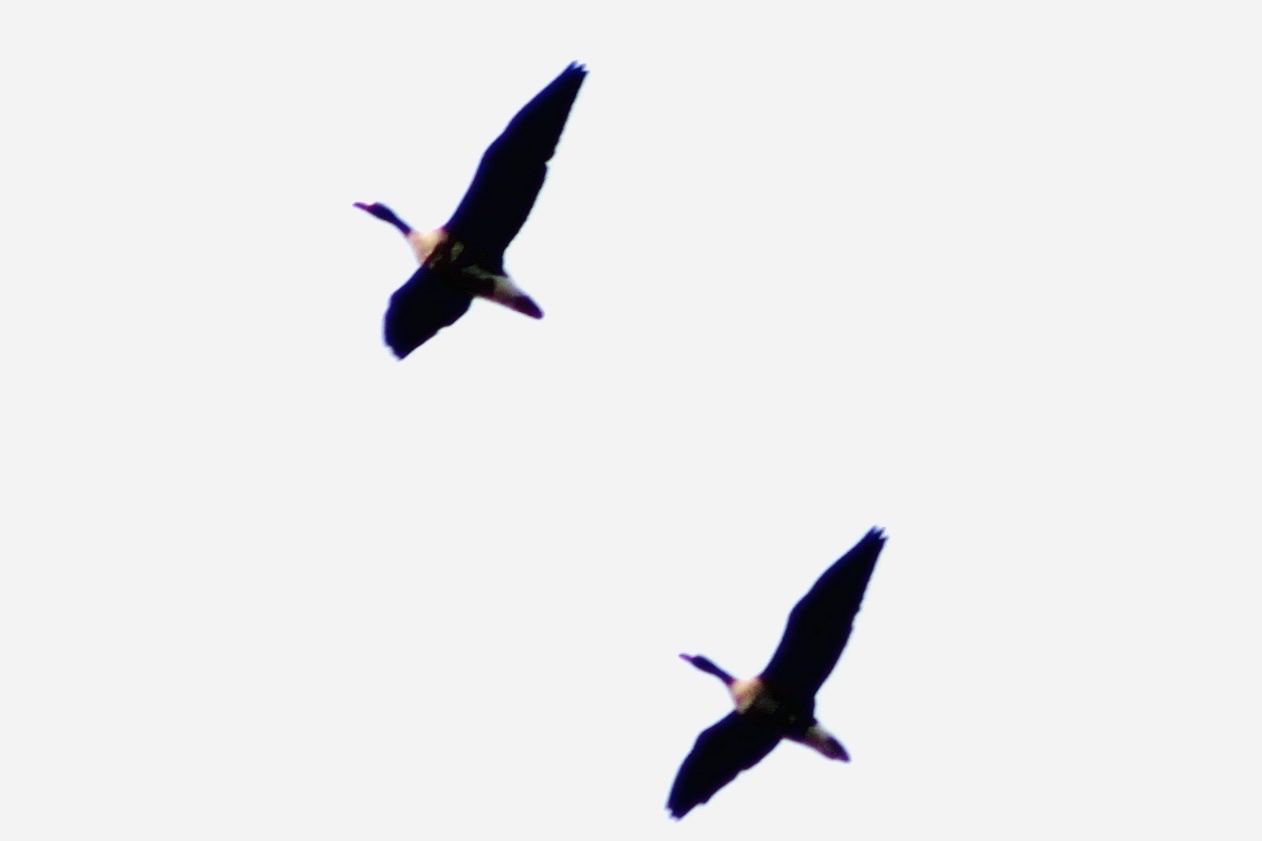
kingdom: Animalia
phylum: Chordata
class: Aves
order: Anseriformes
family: Anatidae
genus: Anser
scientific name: Anser albifrons
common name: Greater white-fronted goose
